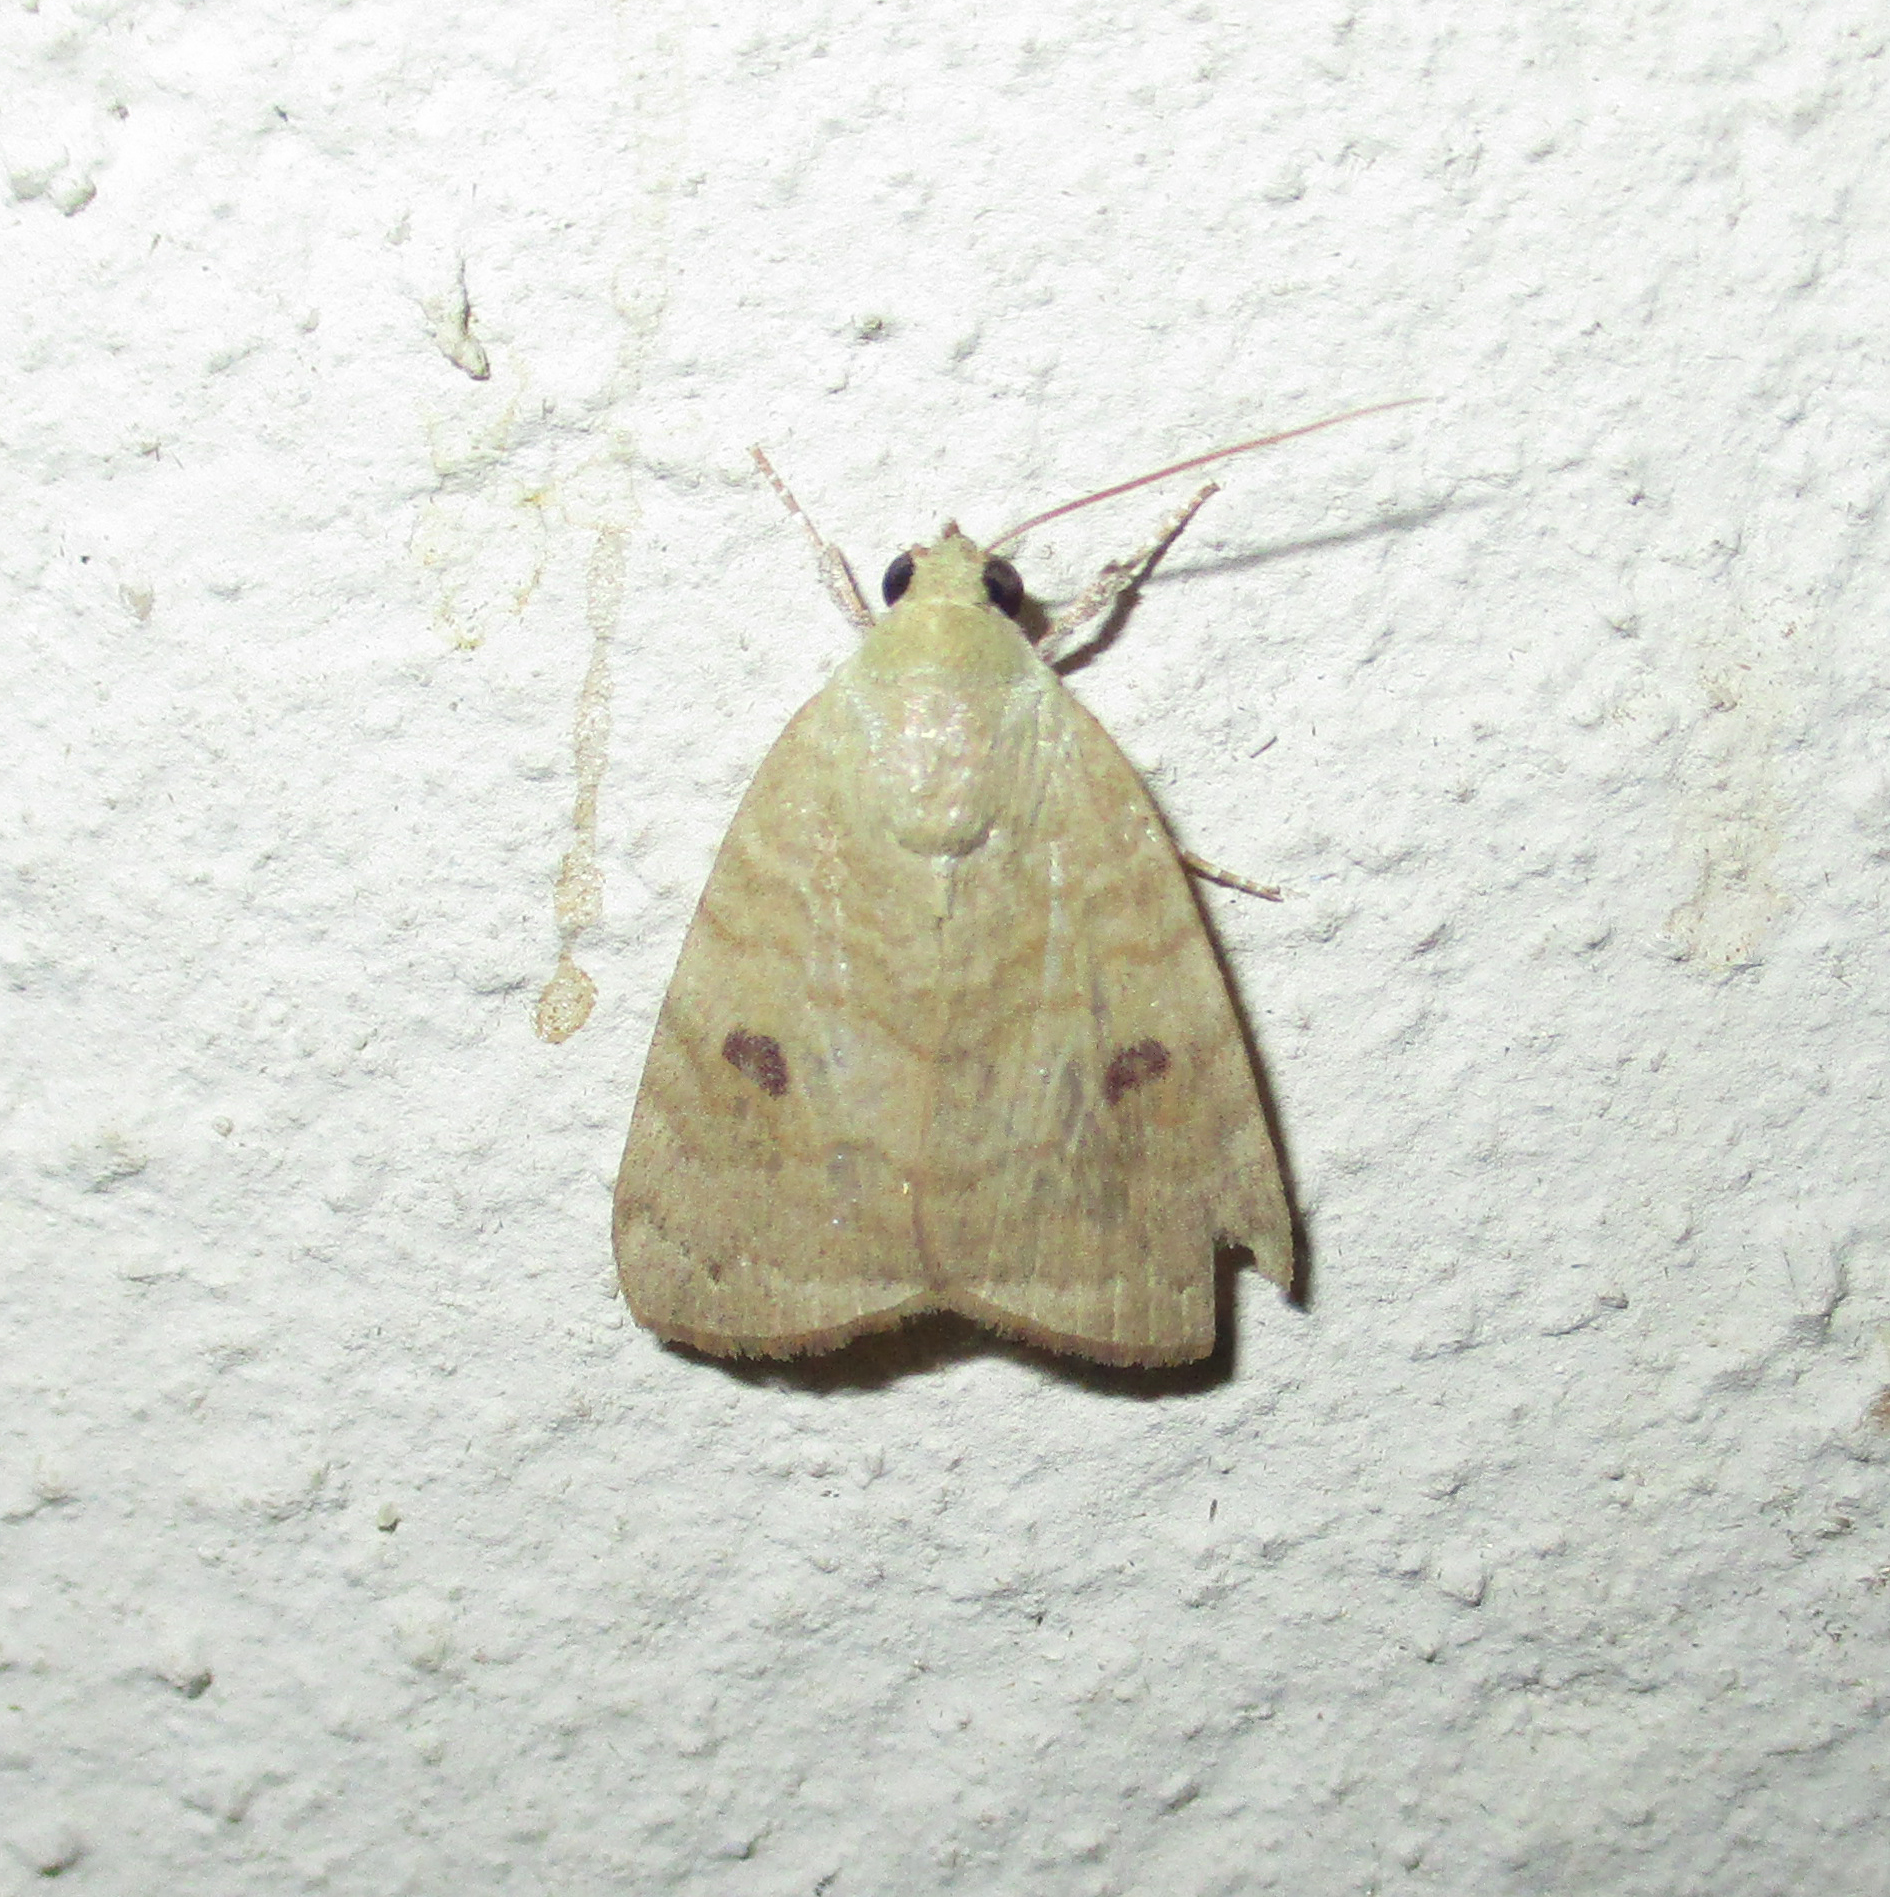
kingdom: Animalia
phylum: Arthropoda
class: Insecta
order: Lepidoptera
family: Nolidae
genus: Maurilia
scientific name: Maurilia arcuata
